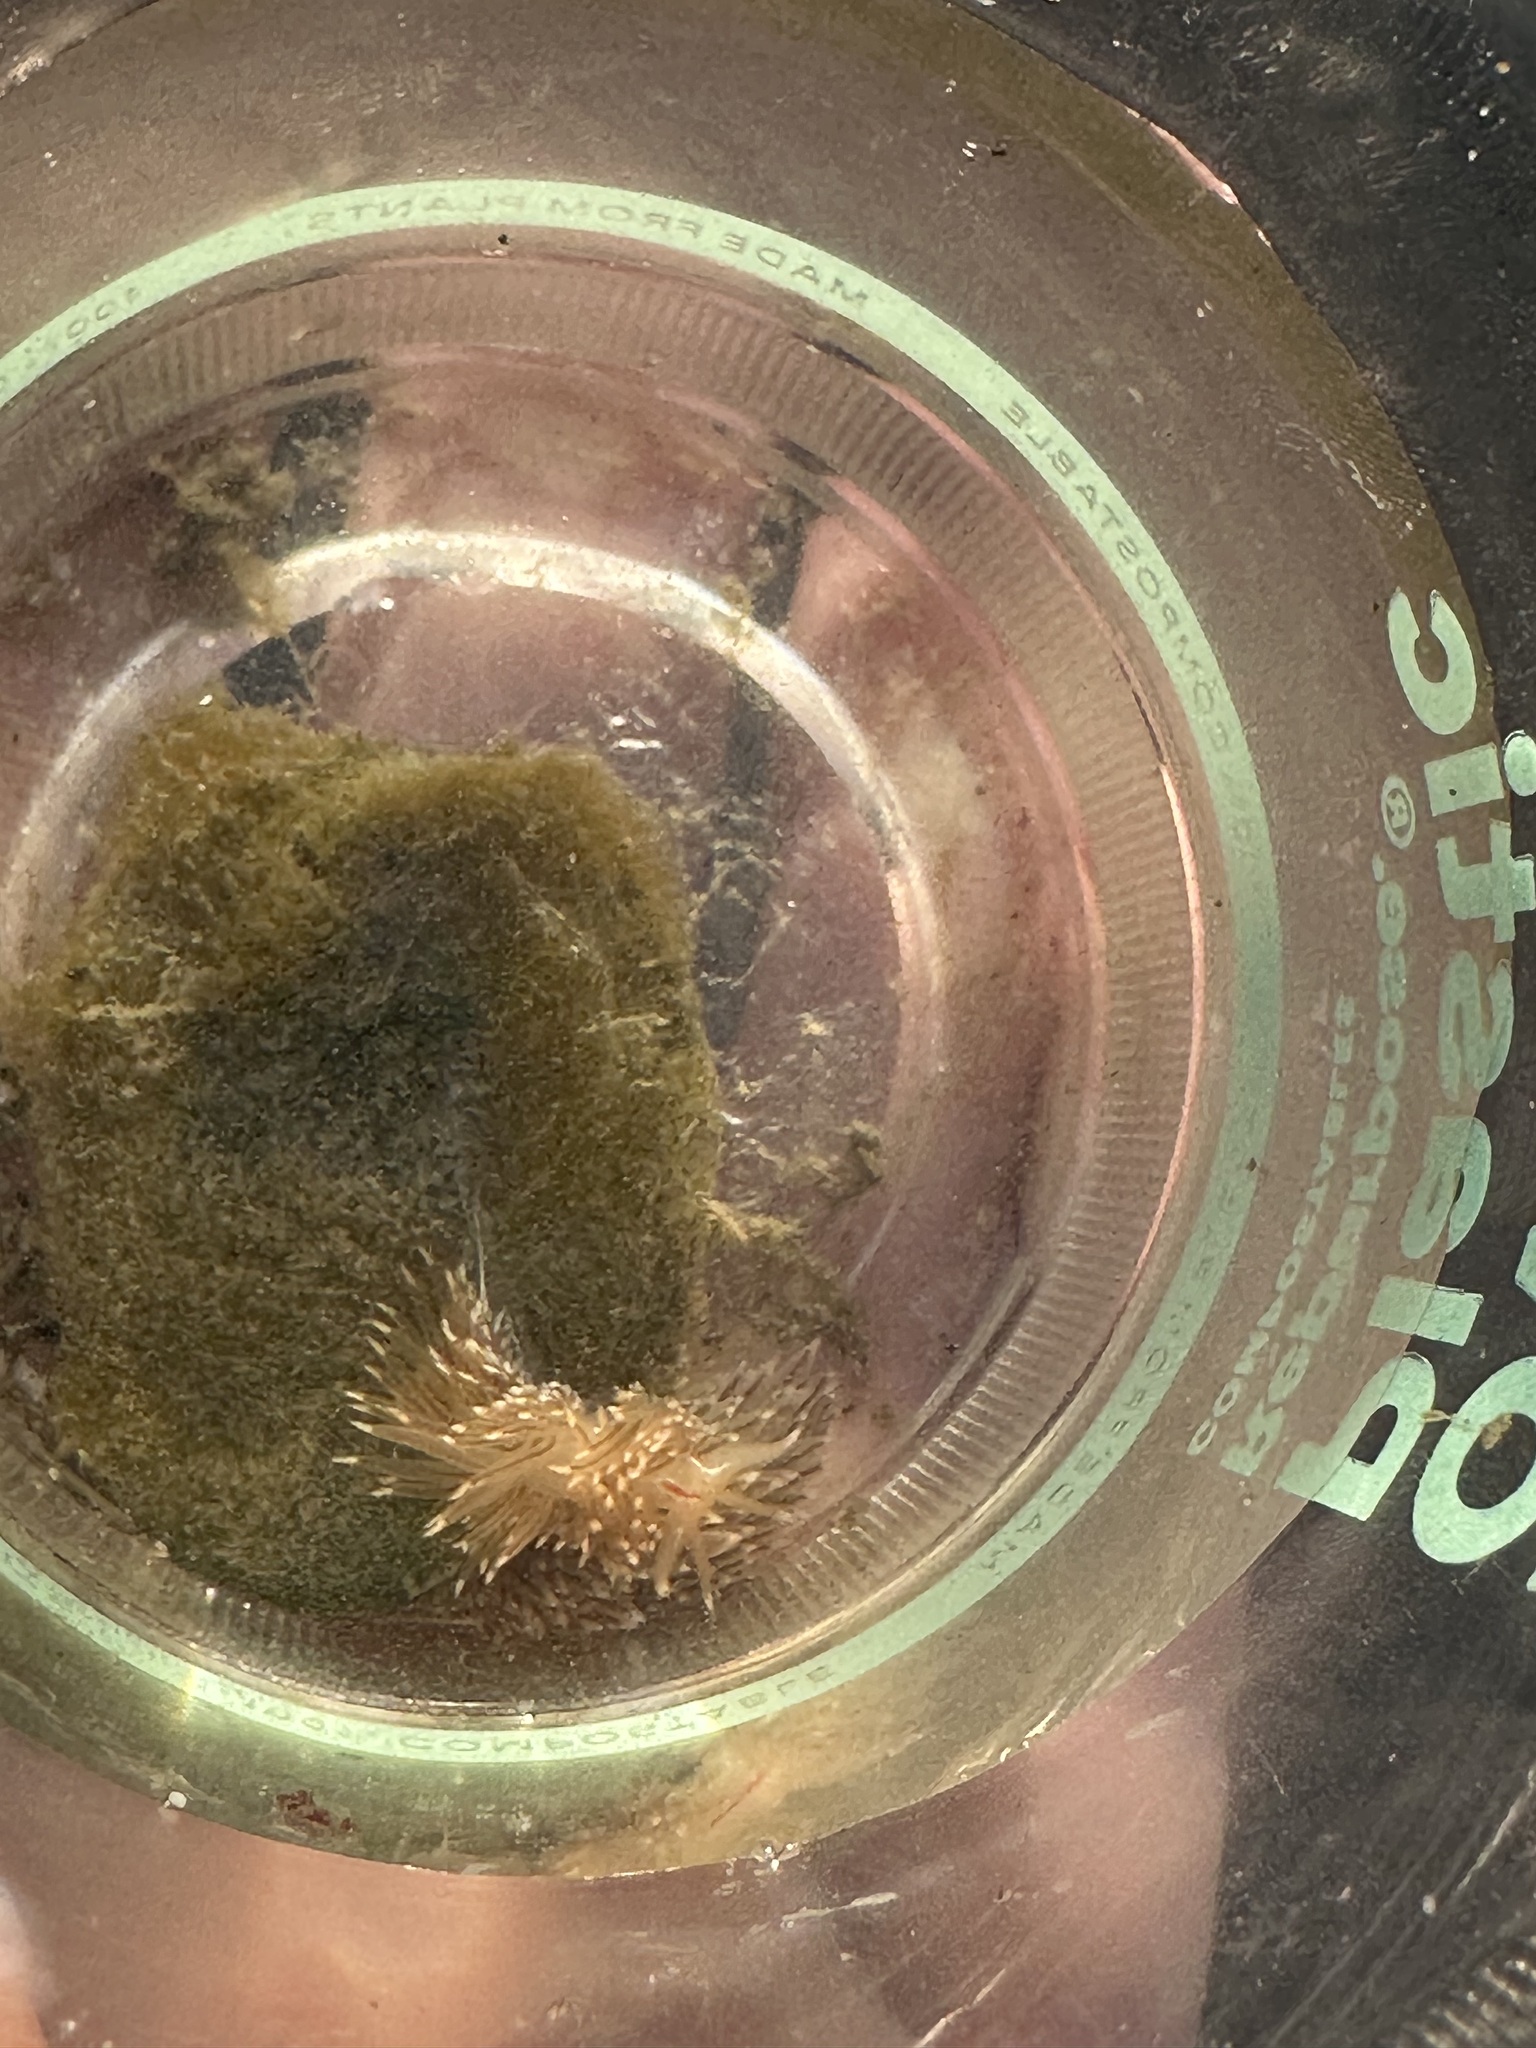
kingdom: Animalia
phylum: Mollusca
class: Gastropoda
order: Nudibranchia
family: Myrrhinidae
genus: Hermissenda
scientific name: Hermissenda crassicornis
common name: Hermissenda
